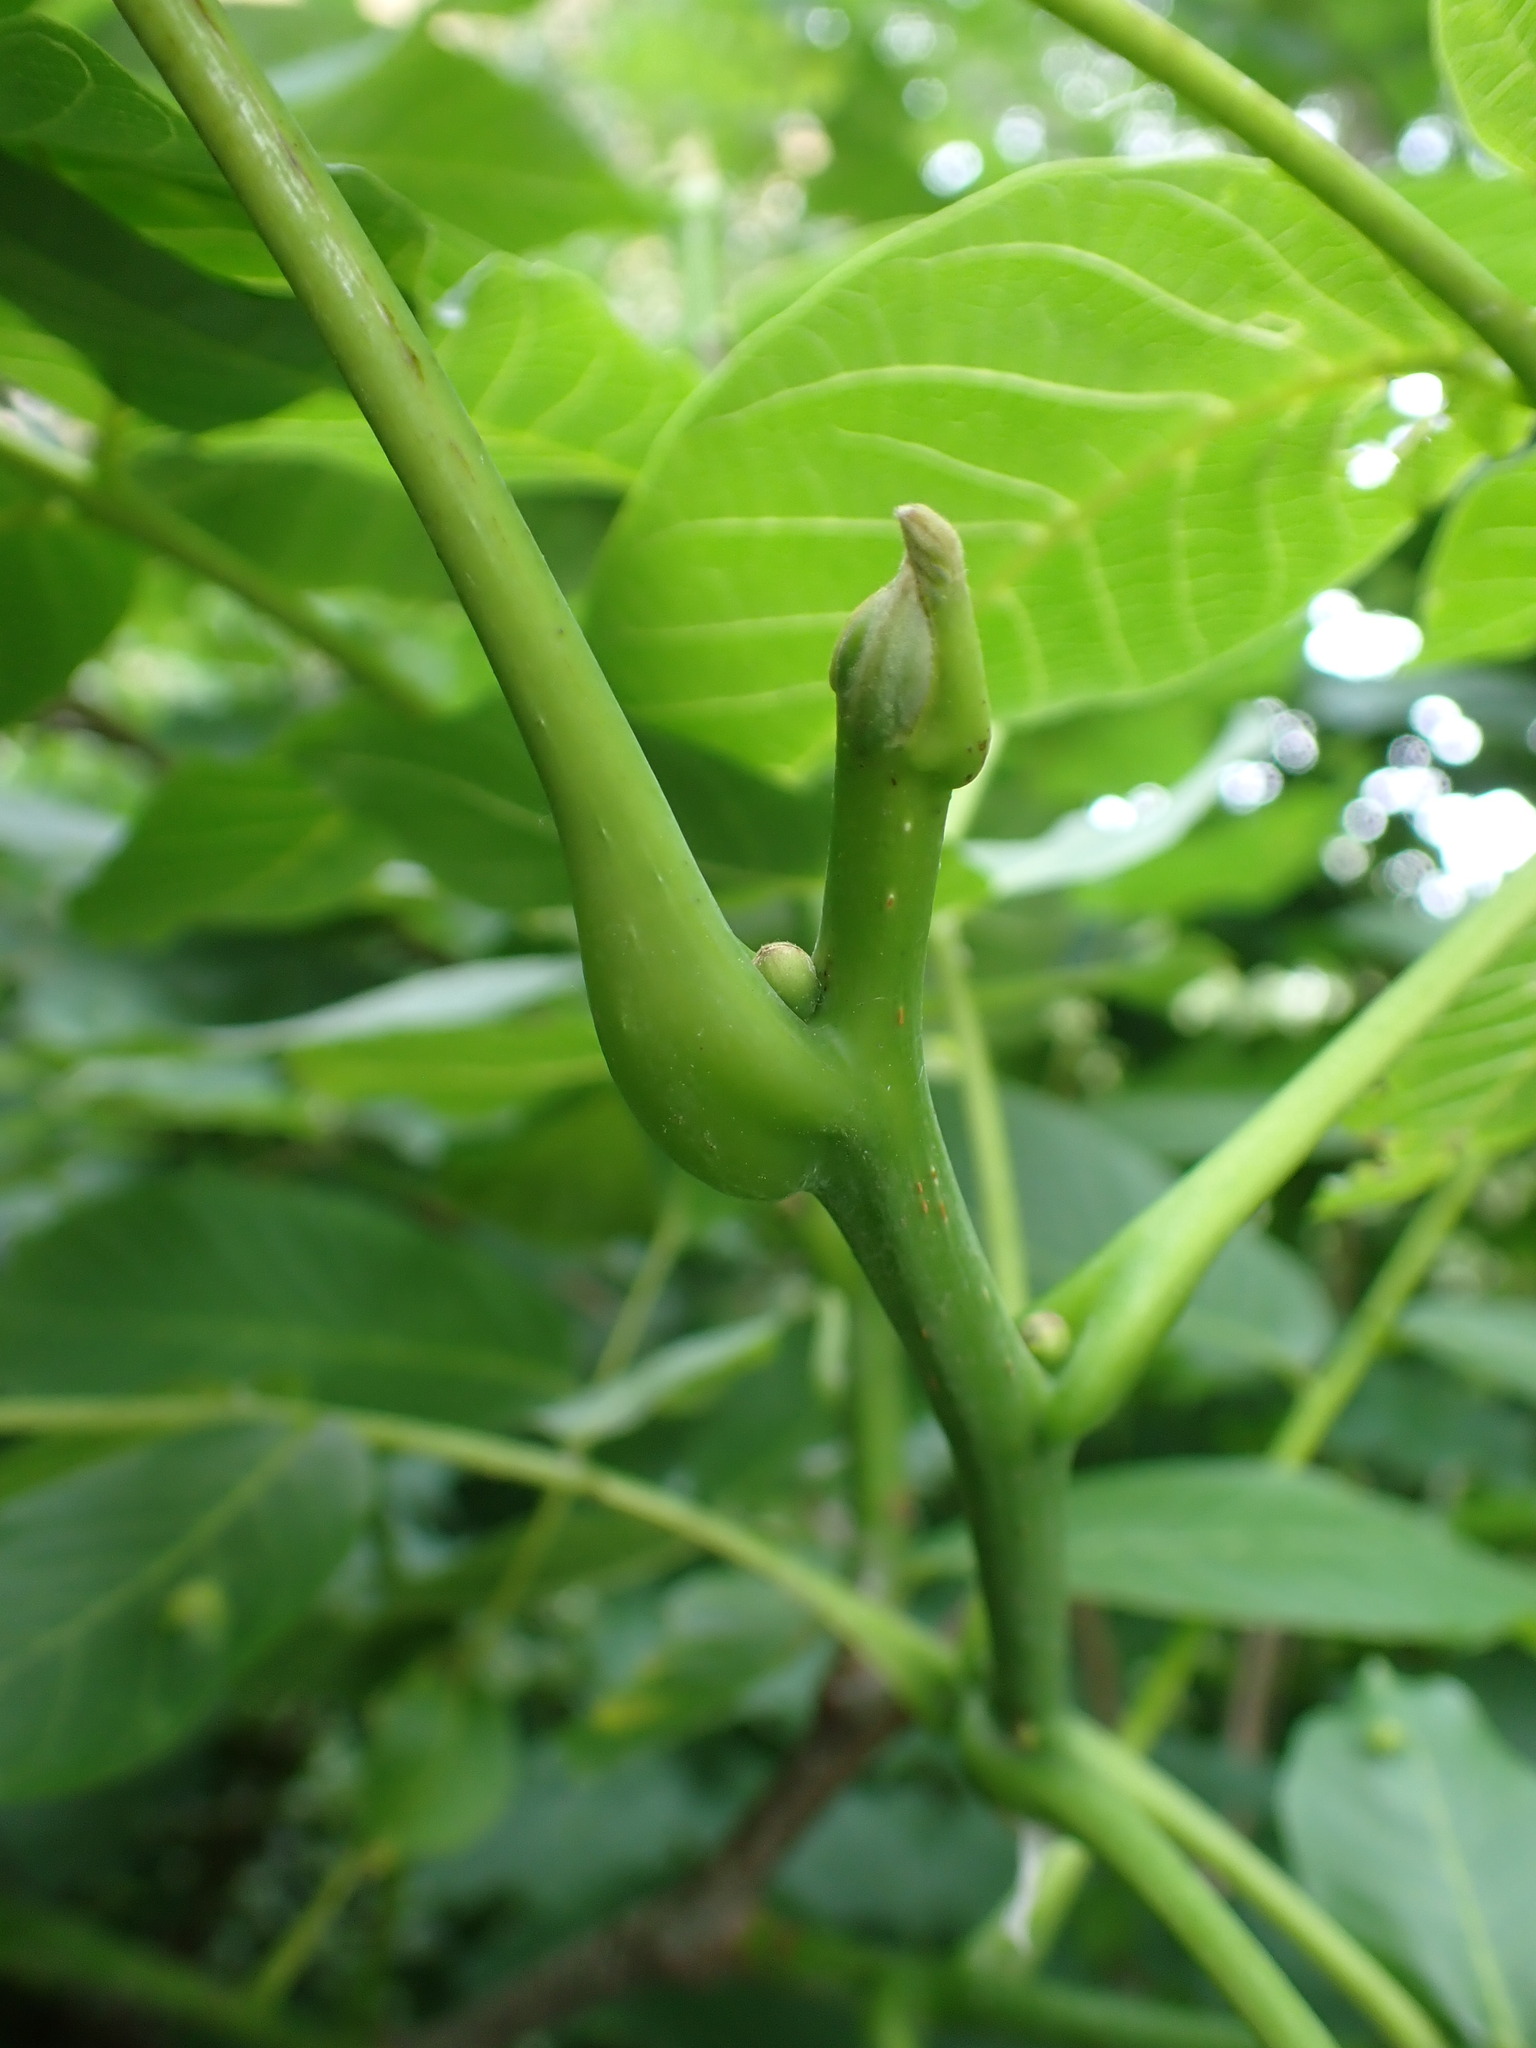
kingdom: Plantae
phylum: Tracheophyta
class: Magnoliopsida
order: Fagales
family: Juglandaceae
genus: Juglans
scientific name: Juglans regia
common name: Walnut
